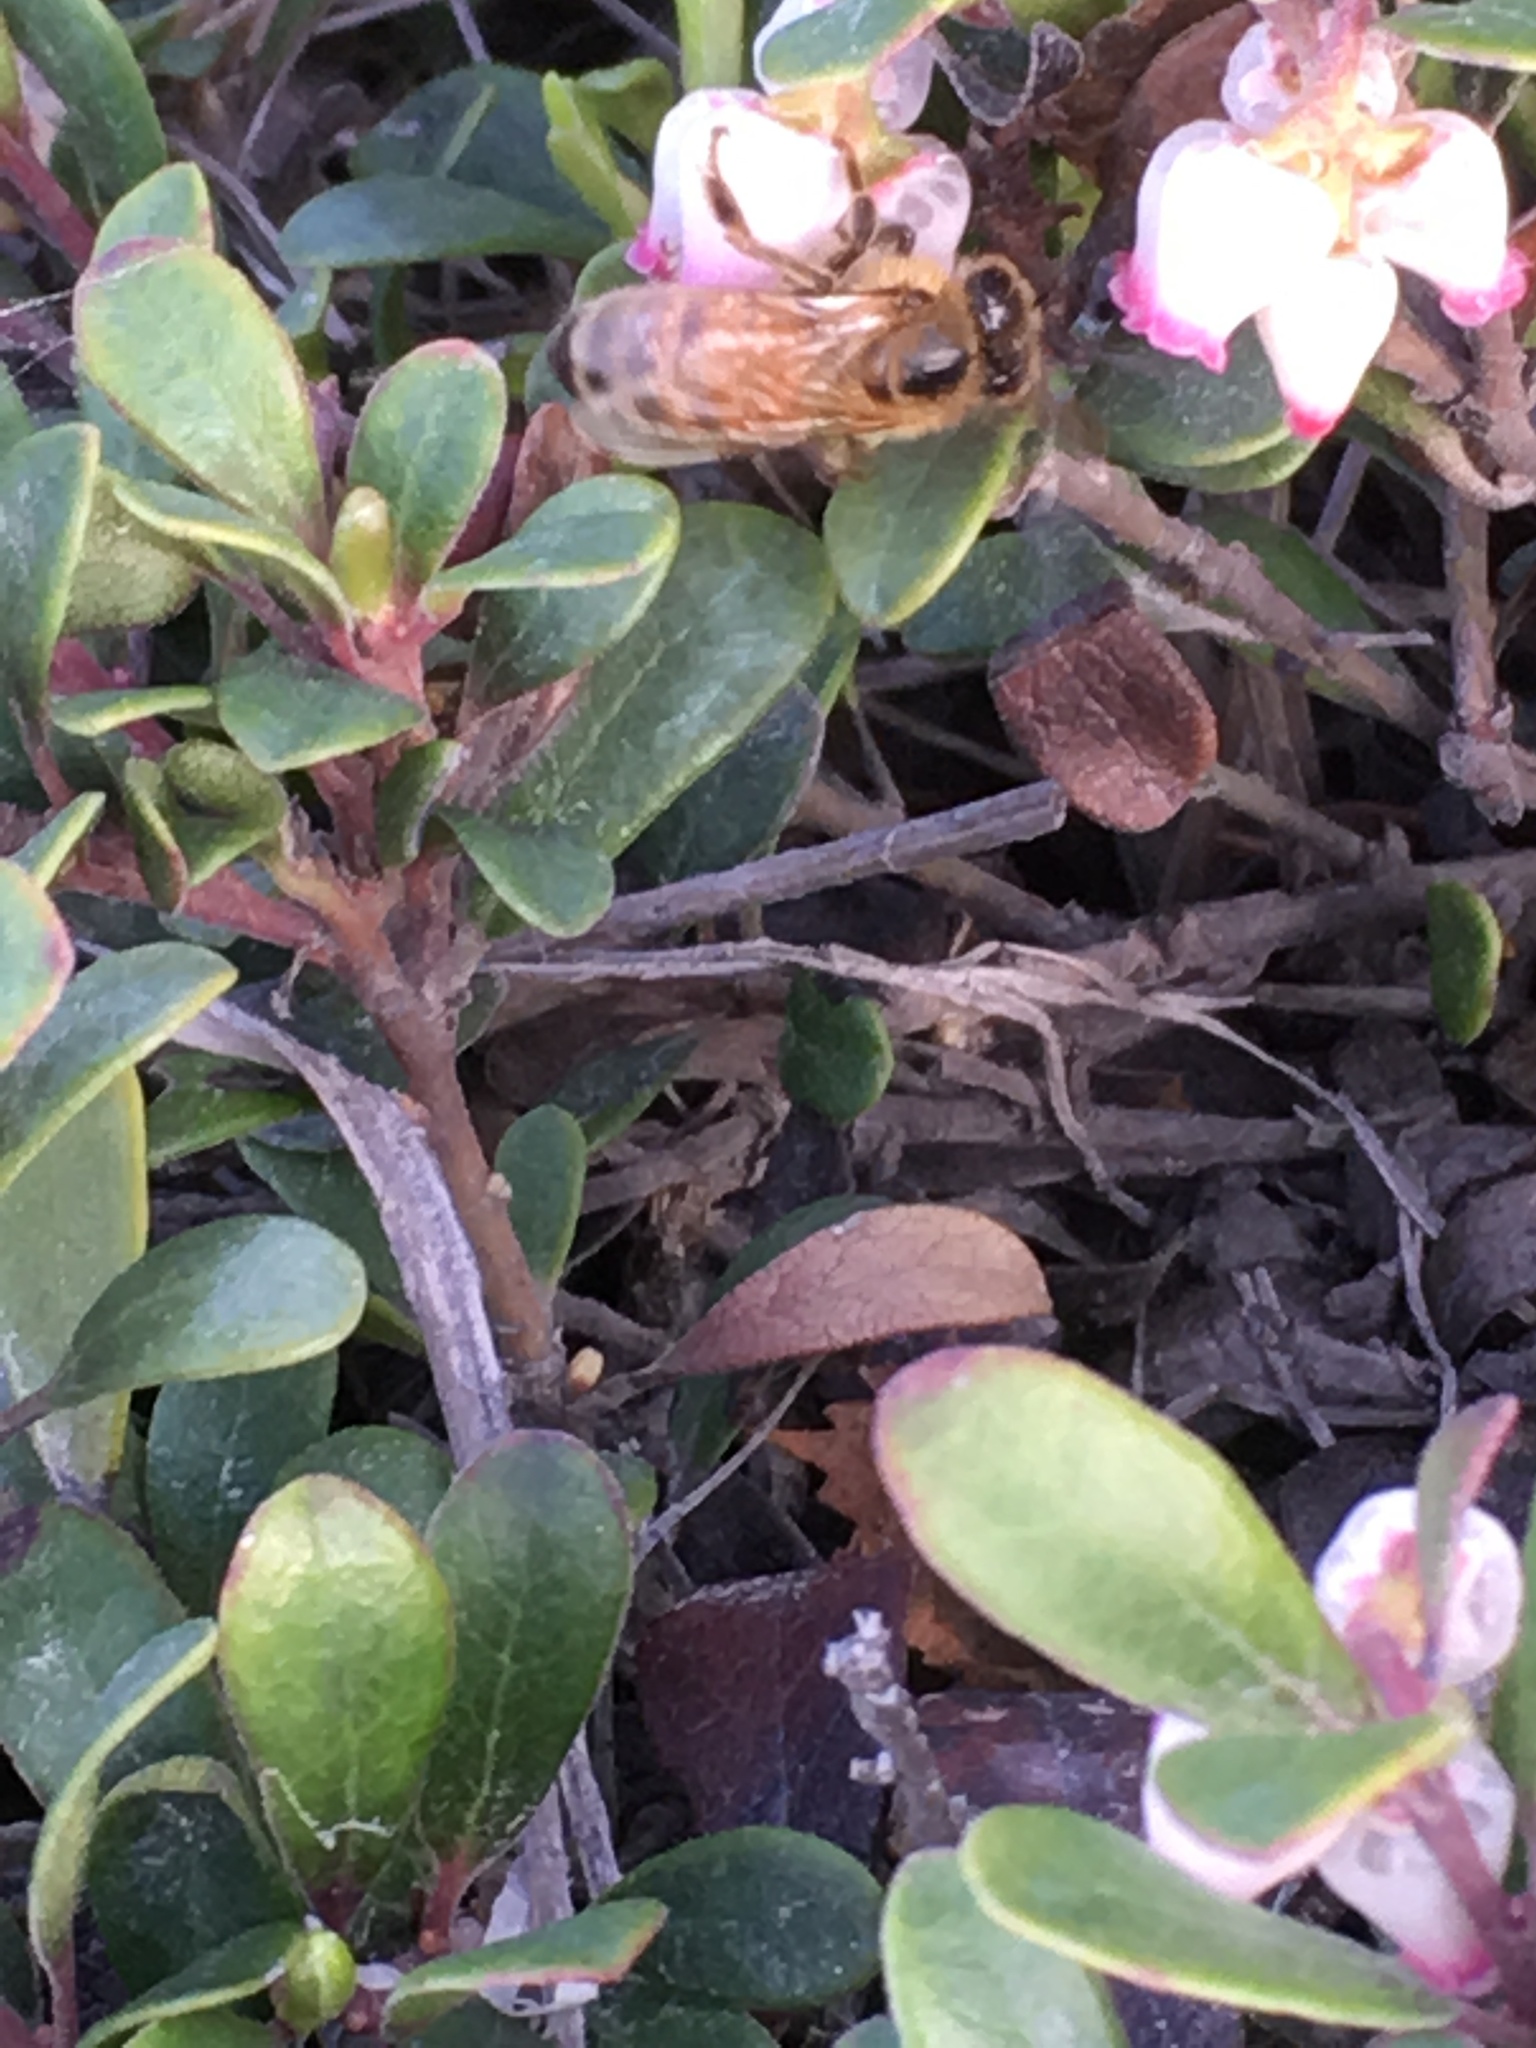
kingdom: Animalia
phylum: Arthropoda
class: Insecta
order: Hymenoptera
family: Apidae
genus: Apis
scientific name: Apis mellifera
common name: Honey bee
